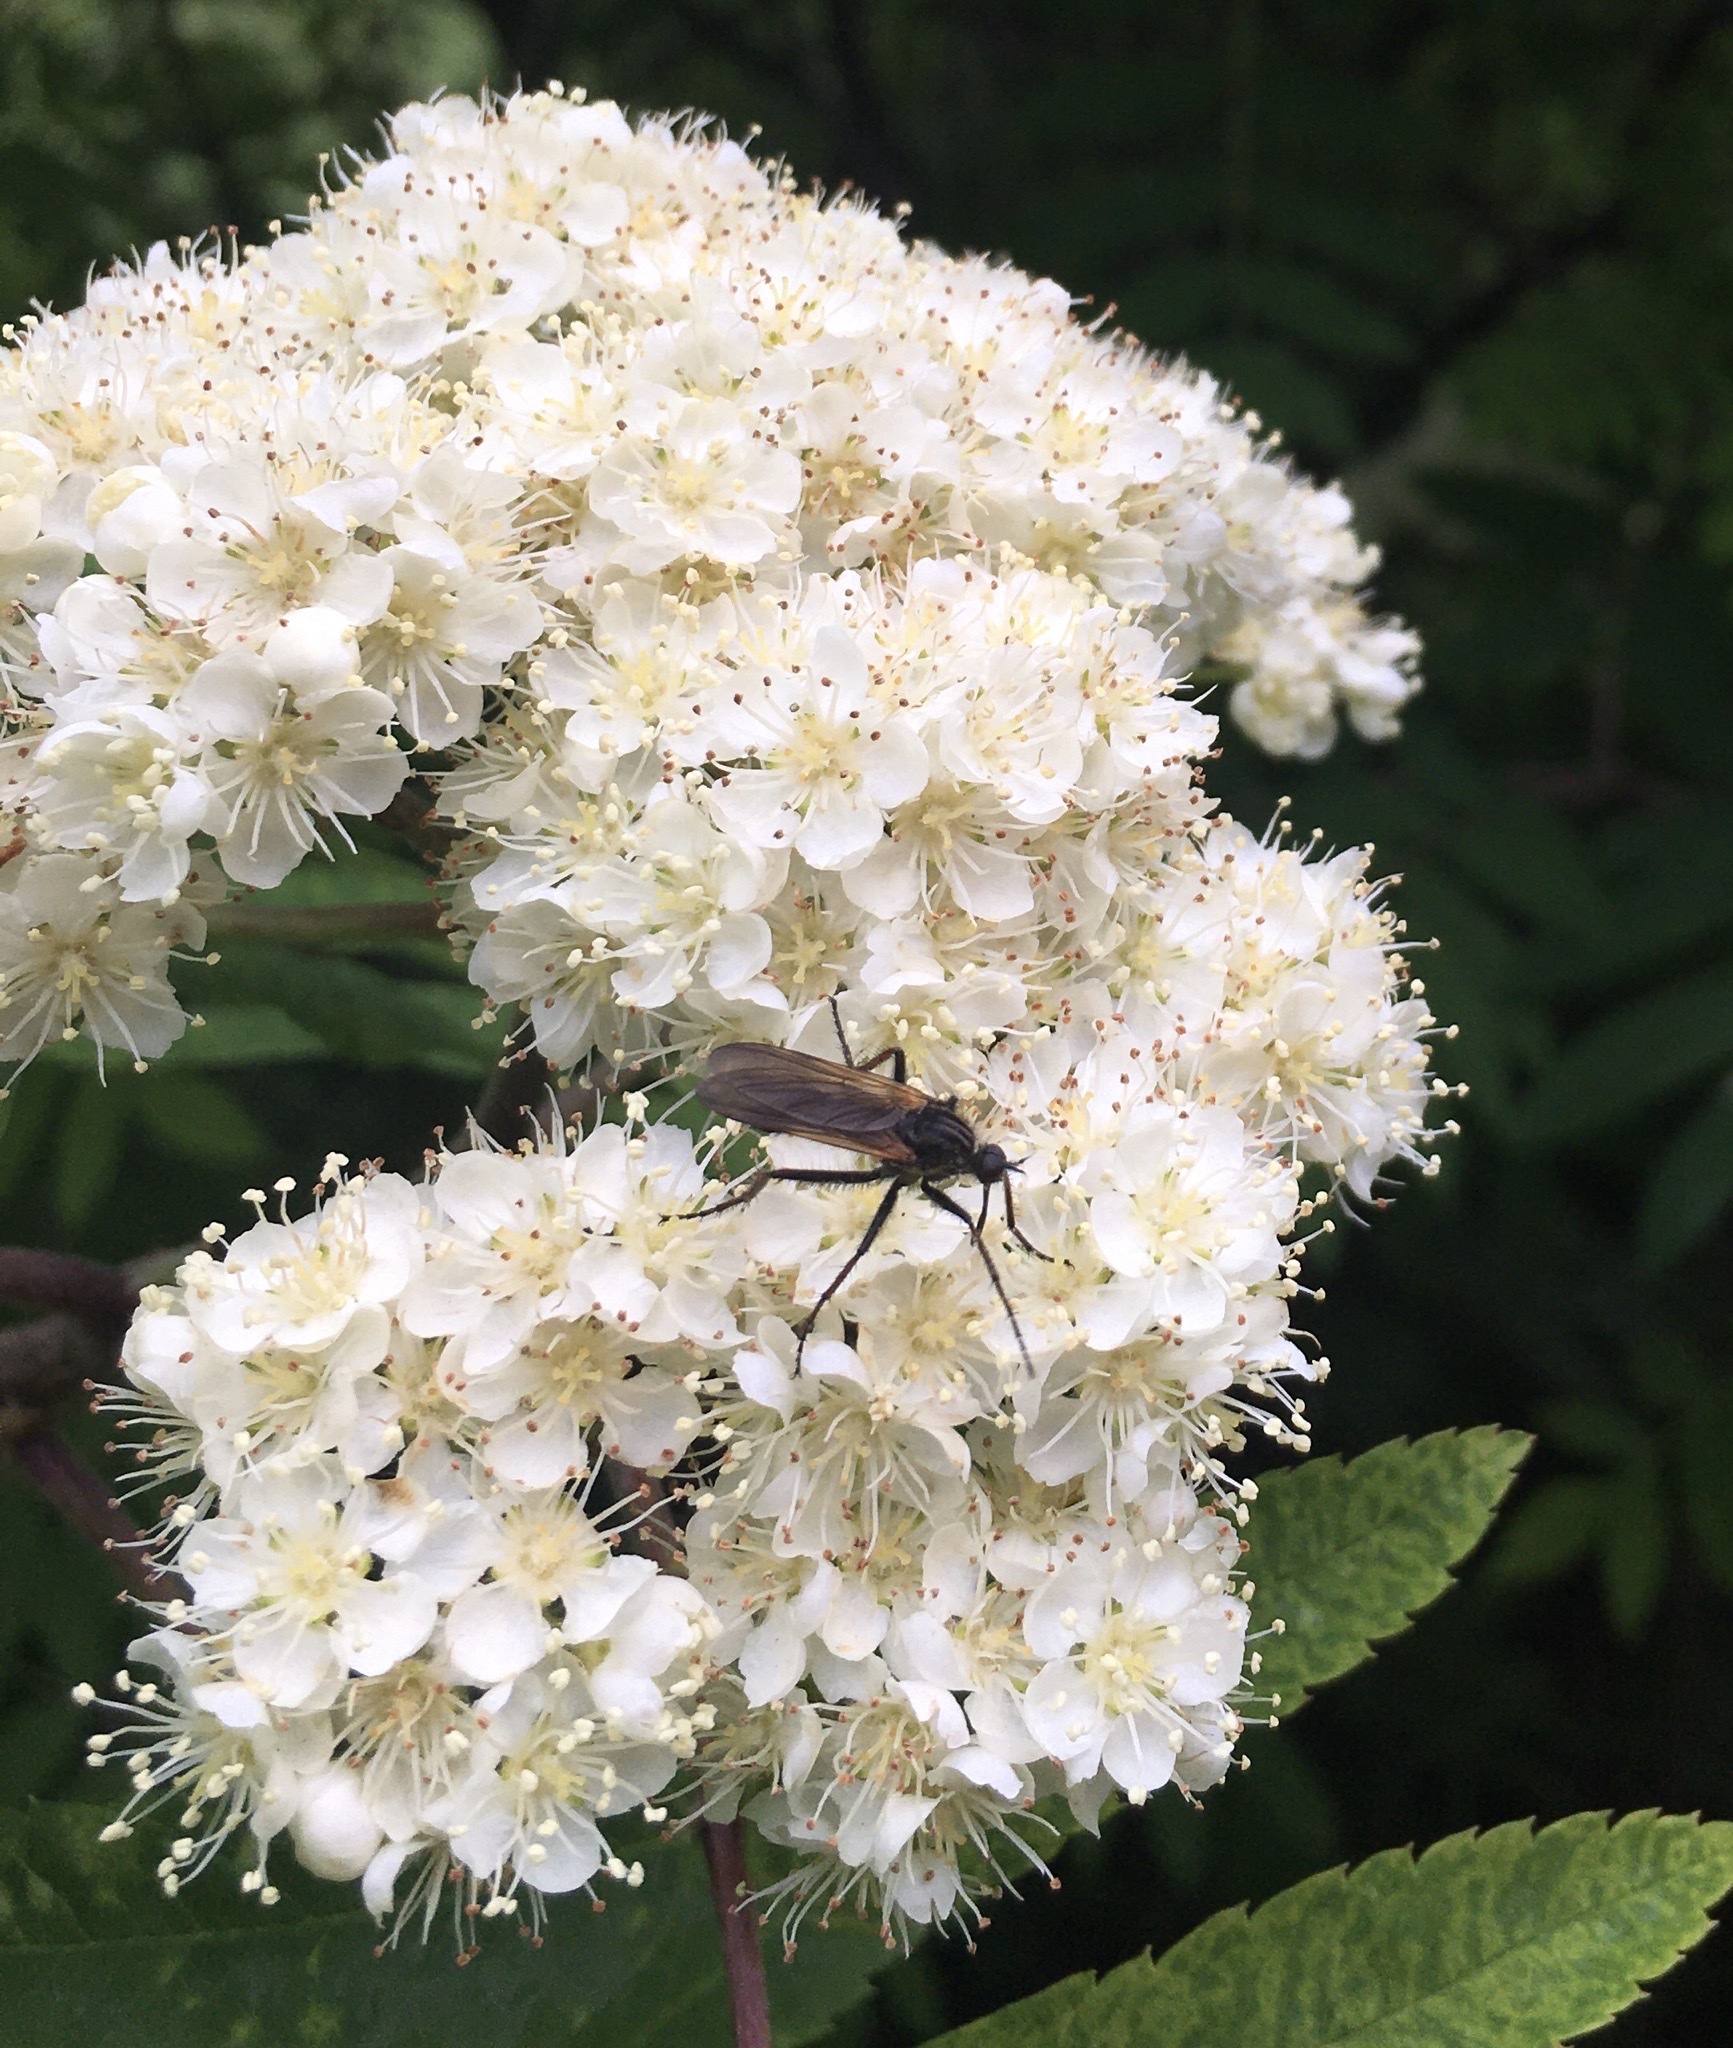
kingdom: Animalia
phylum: Arthropoda
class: Insecta
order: Diptera
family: Empididae
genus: Empis
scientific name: Empis tessellata
